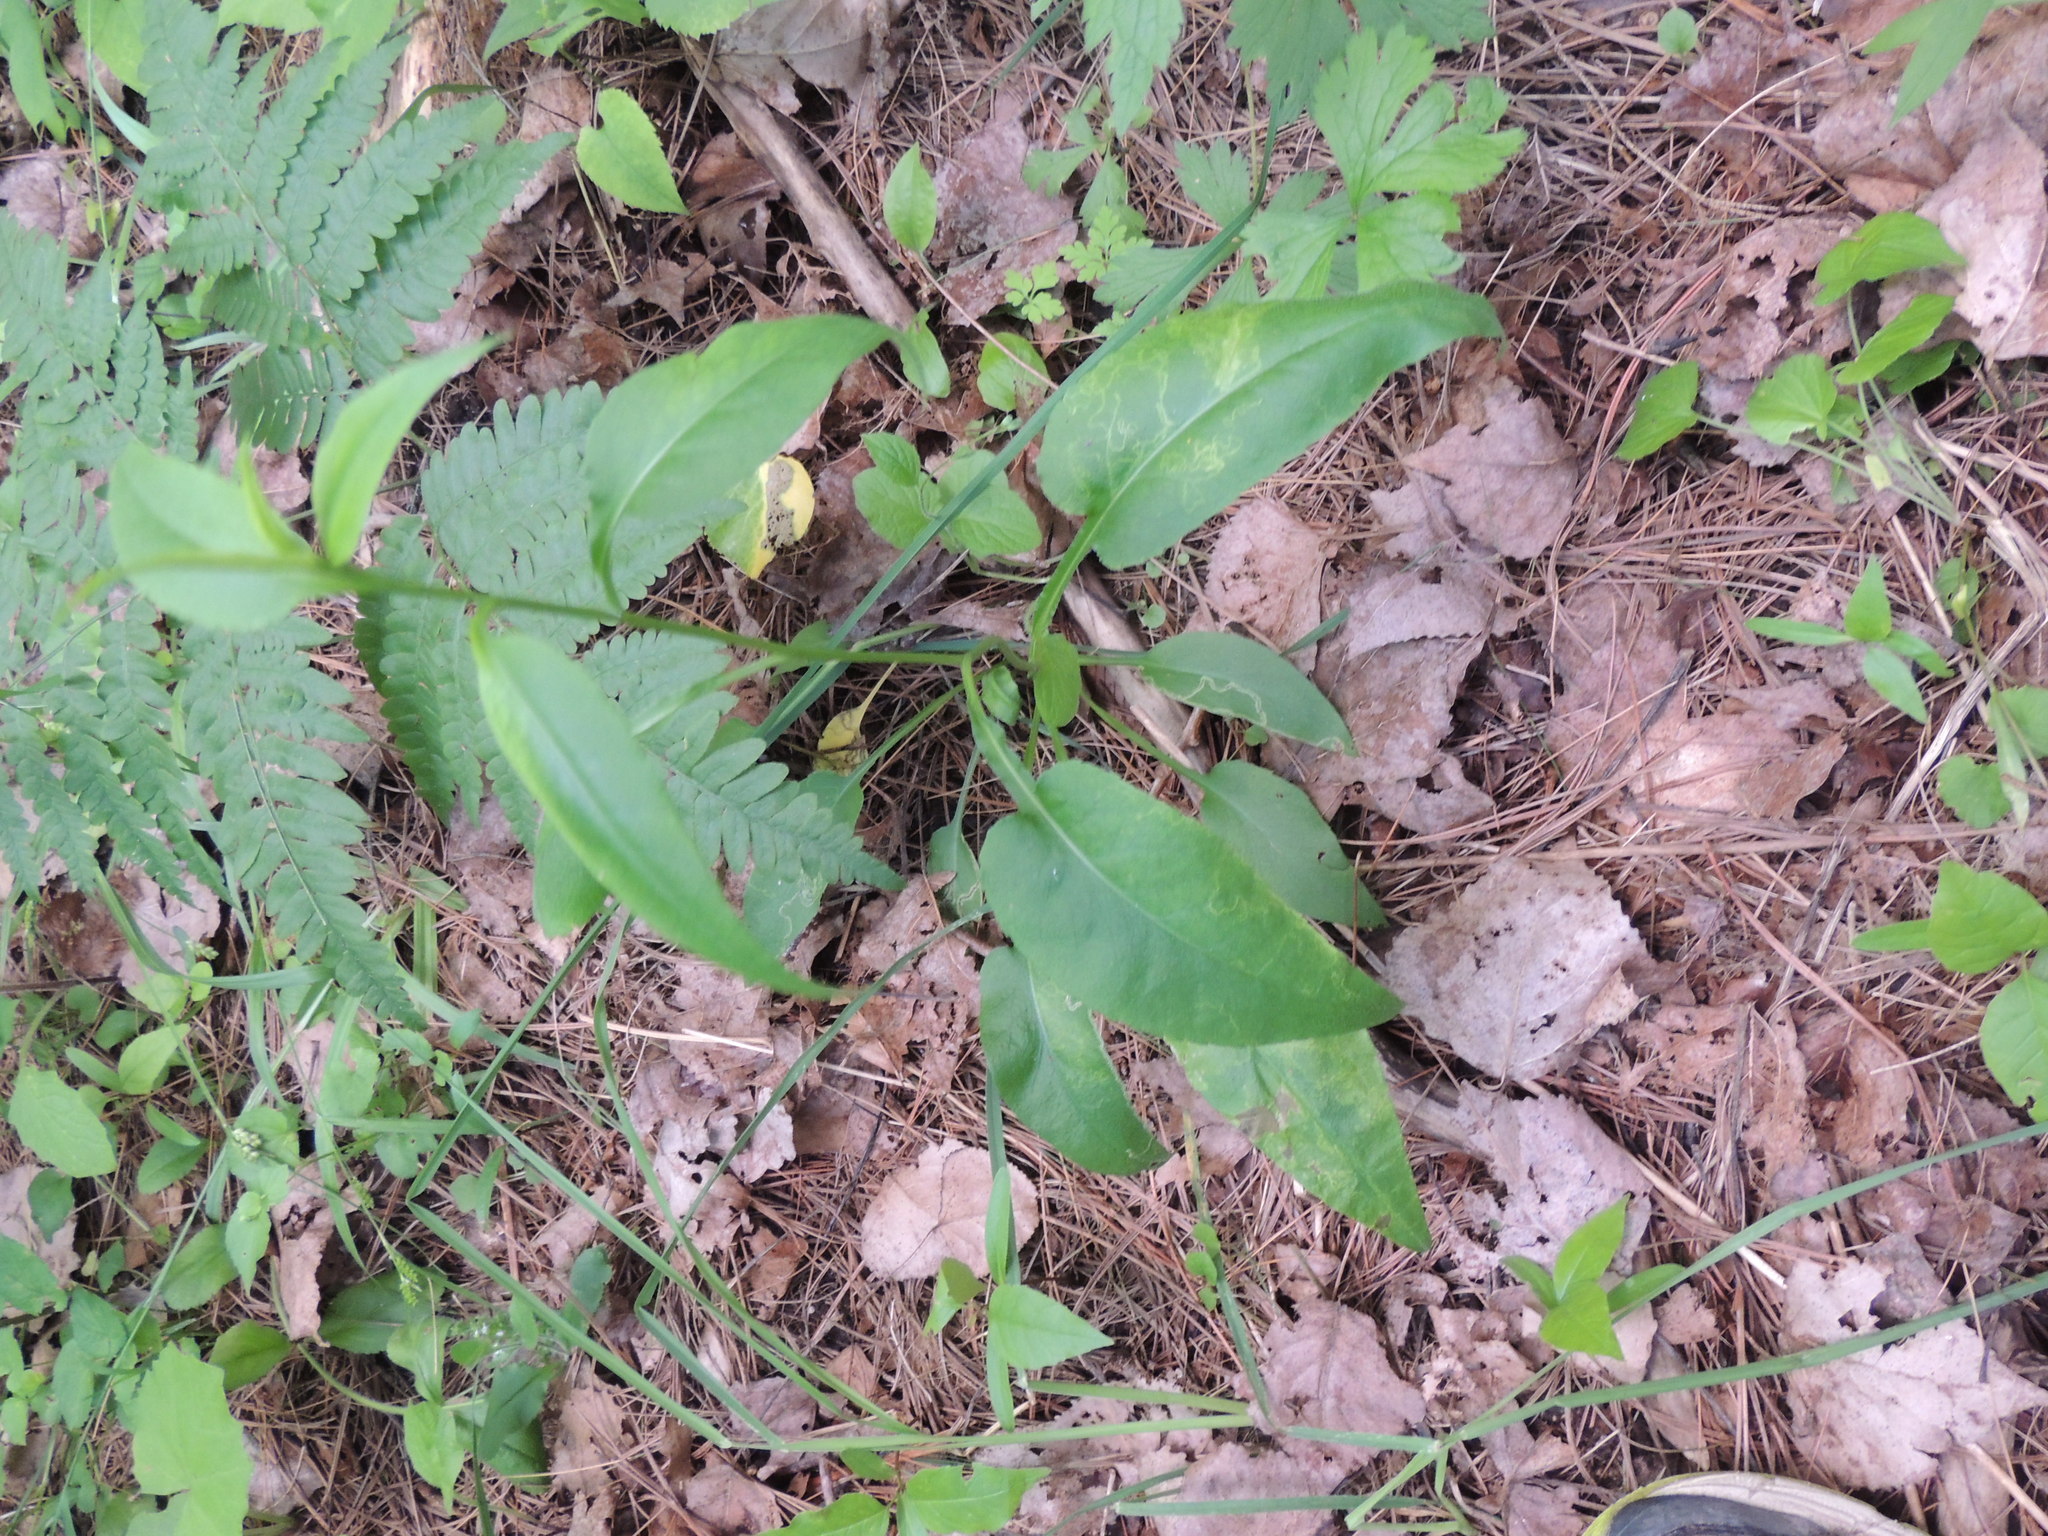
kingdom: Plantae
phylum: Tracheophyta
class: Magnoliopsida
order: Asterales
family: Asteraceae
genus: Symphyotrichum
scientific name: Symphyotrichum ciliolatum
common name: Fringed blue aster
